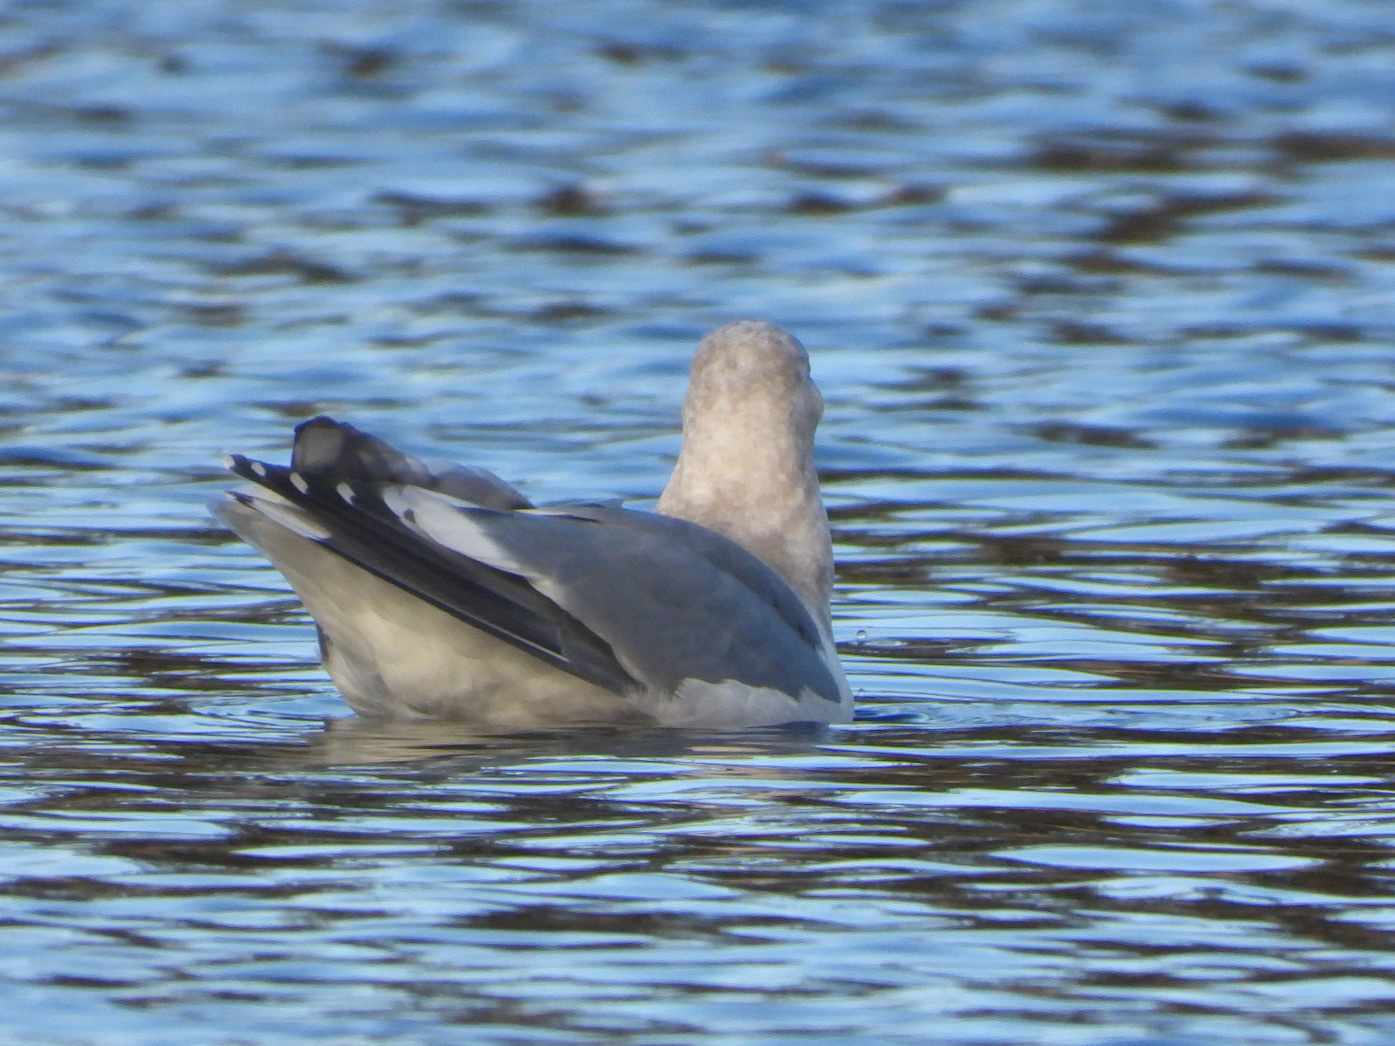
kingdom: Animalia
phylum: Chordata
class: Aves
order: Charadriiformes
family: Laridae
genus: Larus
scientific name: Larus
